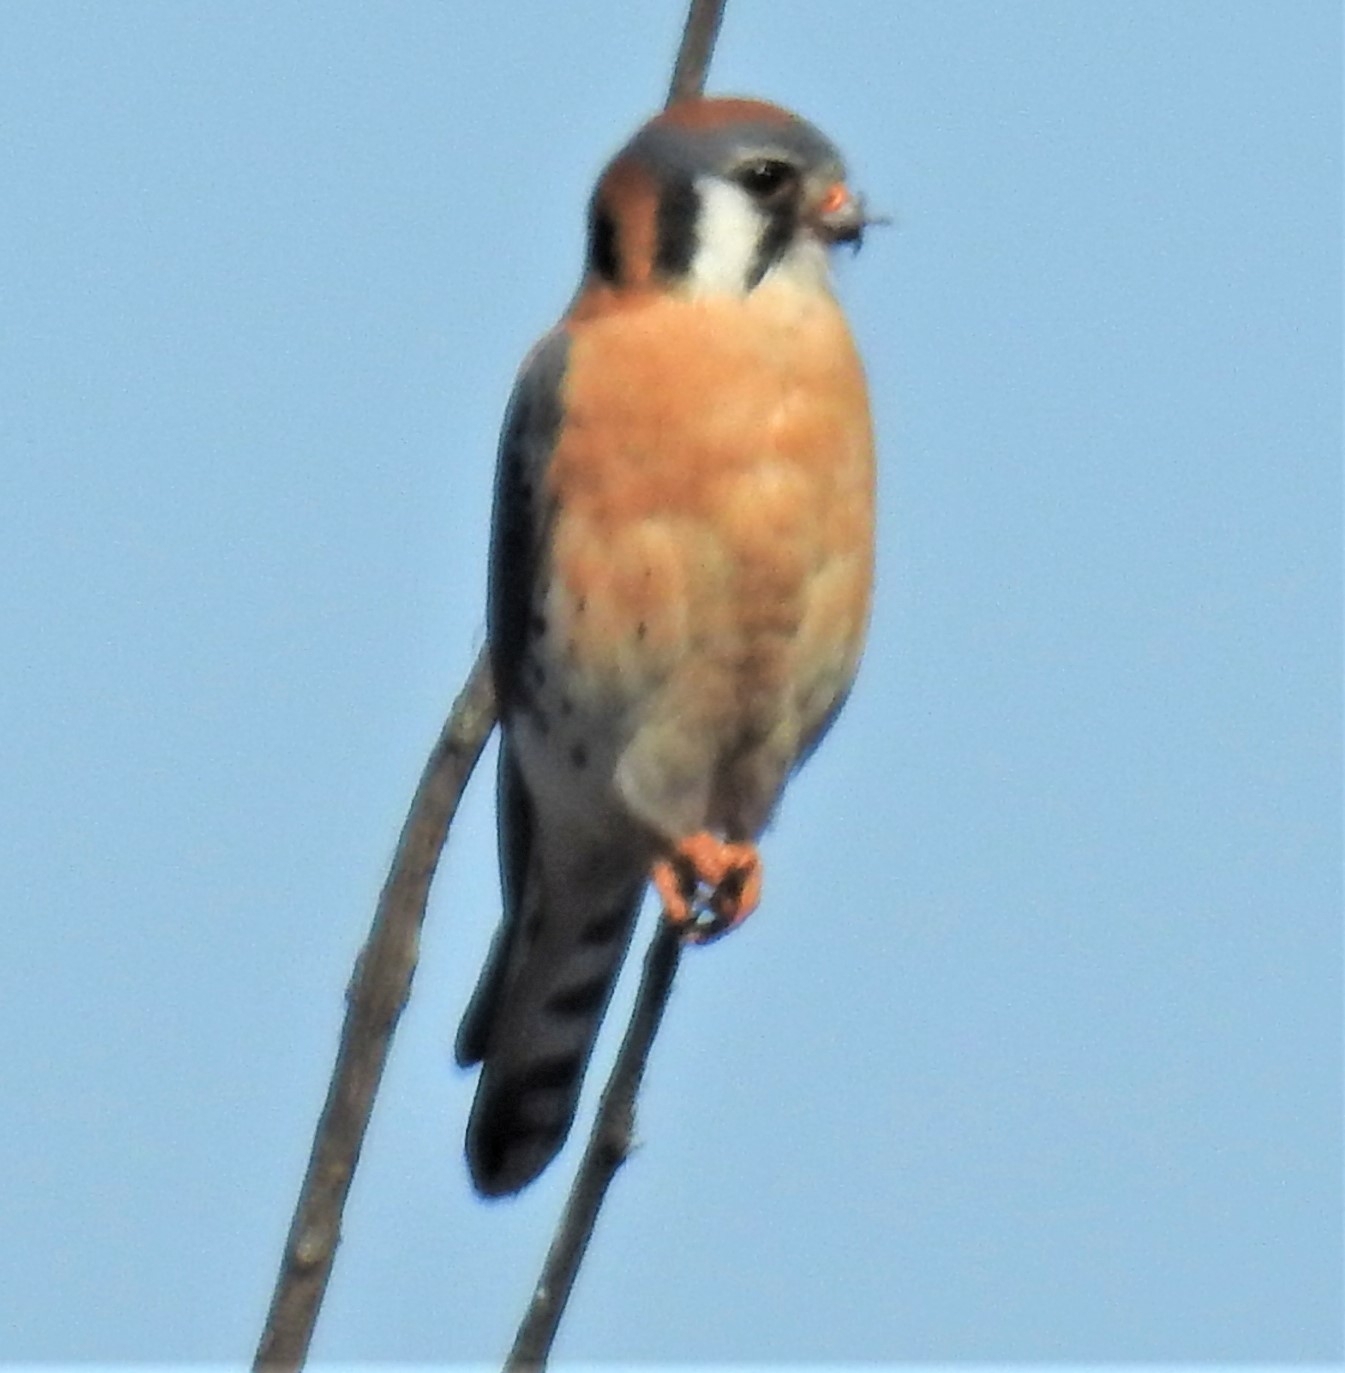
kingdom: Animalia
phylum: Chordata
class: Aves
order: Falconiformes
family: Falconidae
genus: Falco
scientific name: Falco sparverius
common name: American kestrel
